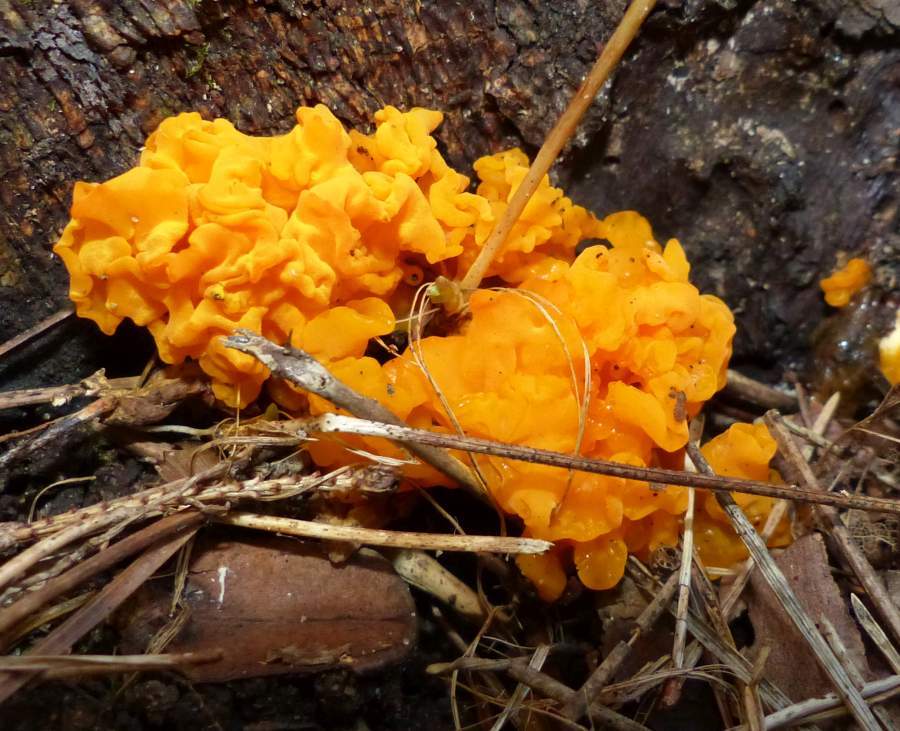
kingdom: Fungi
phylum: Basidiomycota
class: Dacrymycetes
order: Dacrymycetales
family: Dacrymycetaceae
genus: Dacrymyces
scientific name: Dacrymyces chrysospermus
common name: Orange jelly spot
